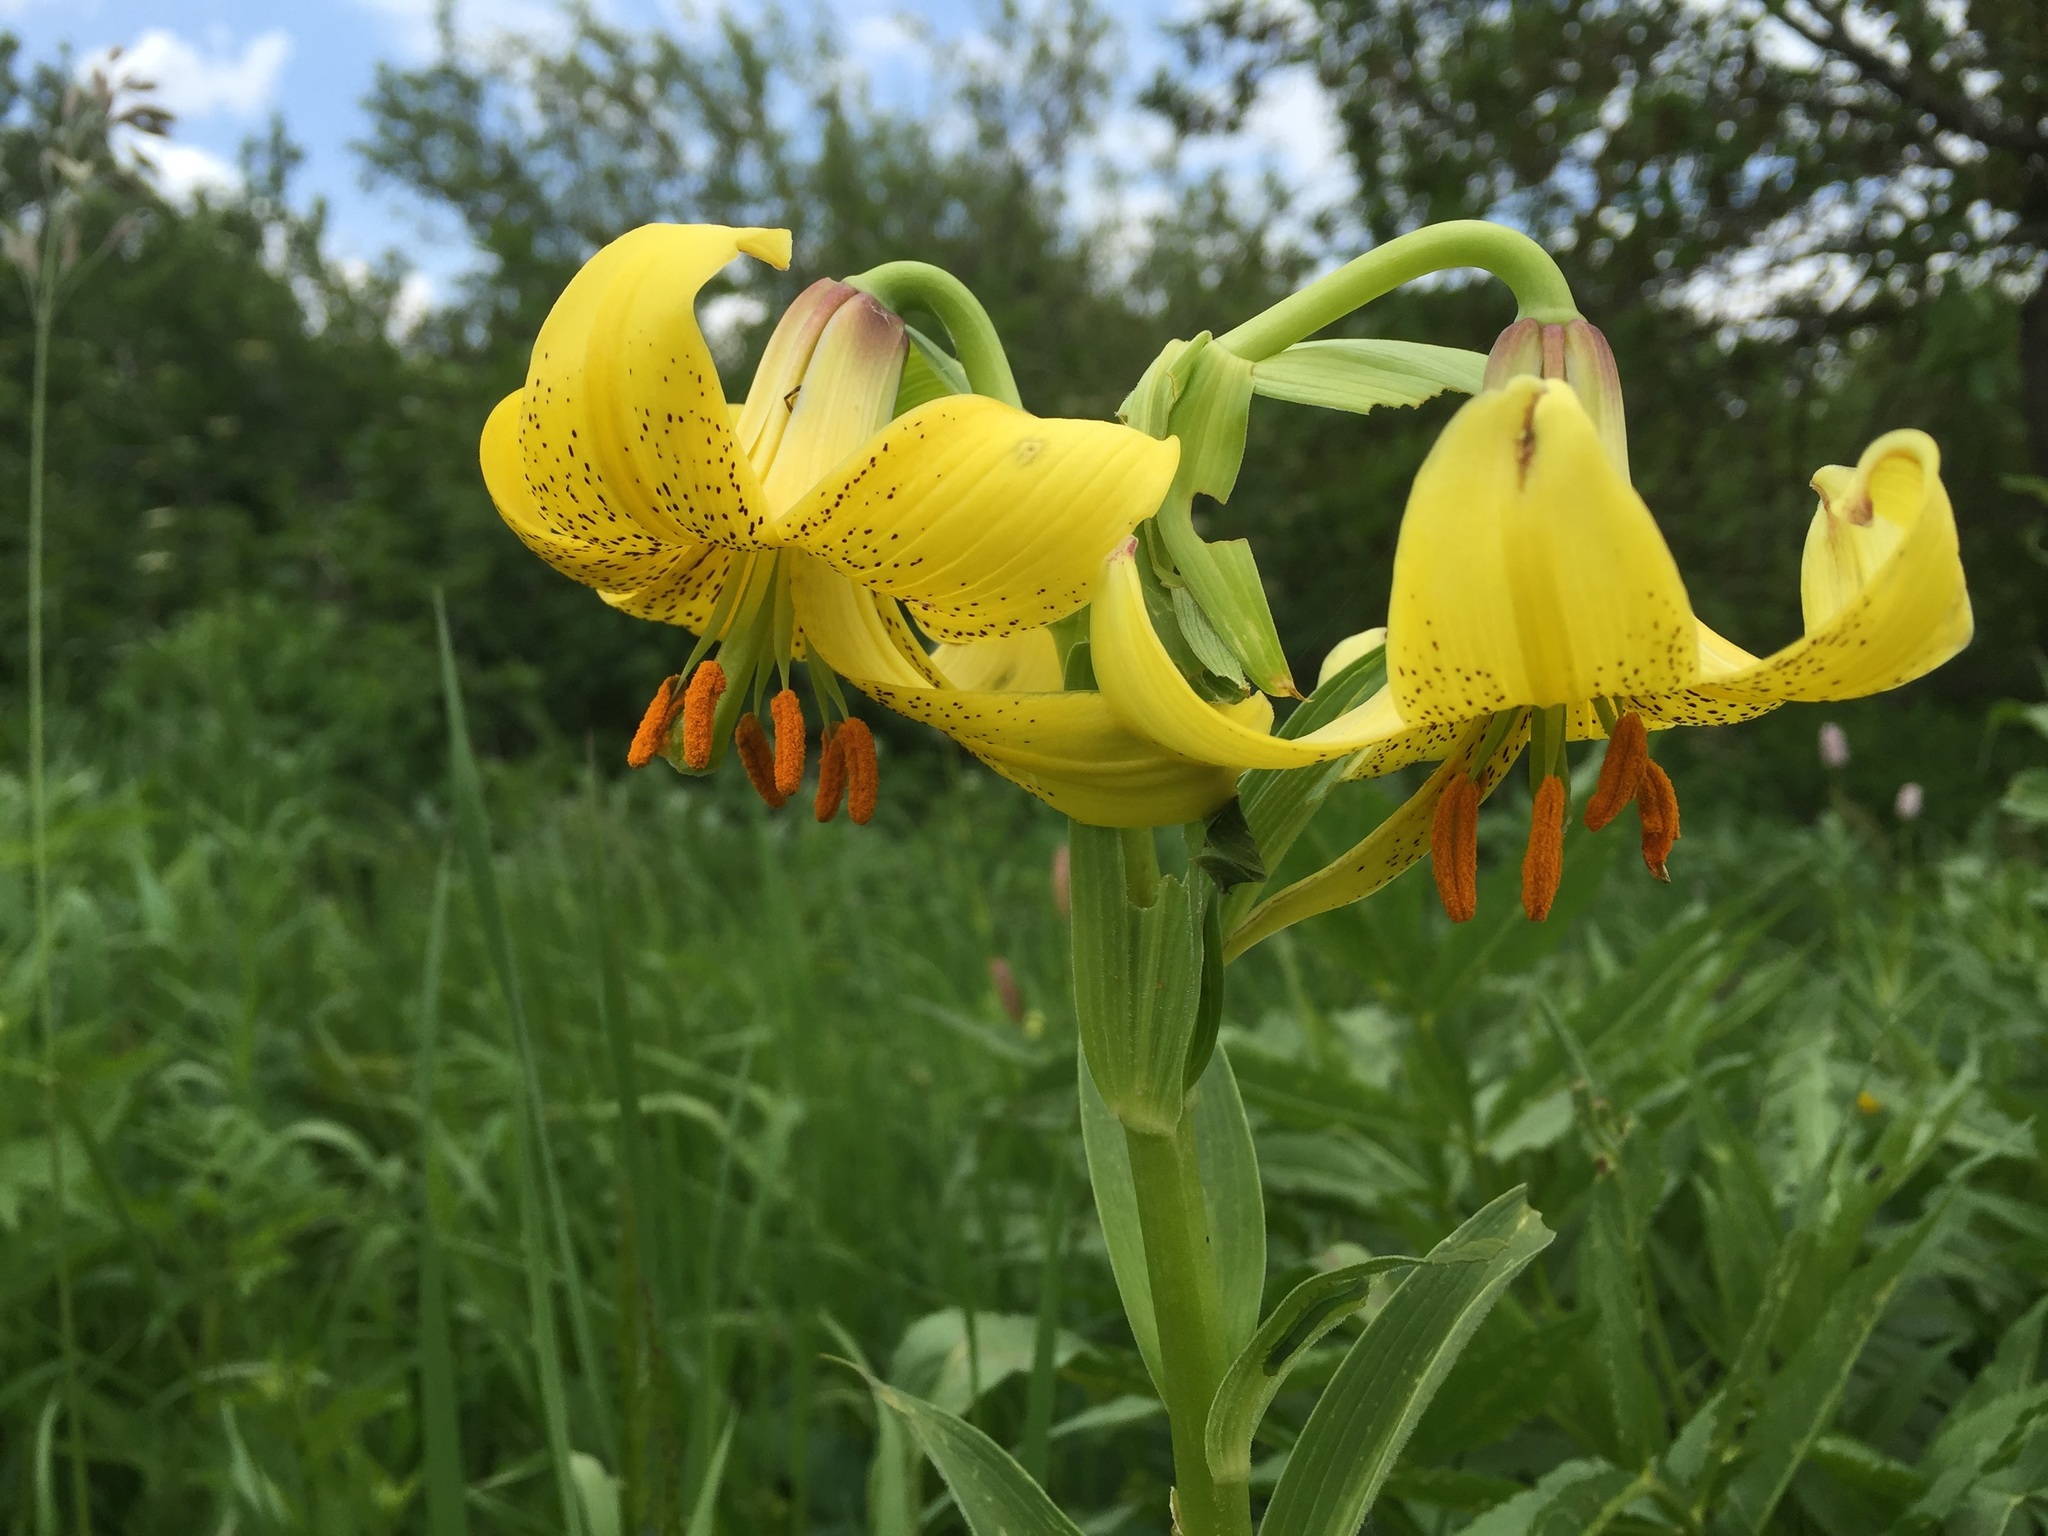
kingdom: Plantae
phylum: Tracheophyta
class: Liliopsida
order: Liliales
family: Liliaceae
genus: Lilium
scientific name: Lilium armenum
